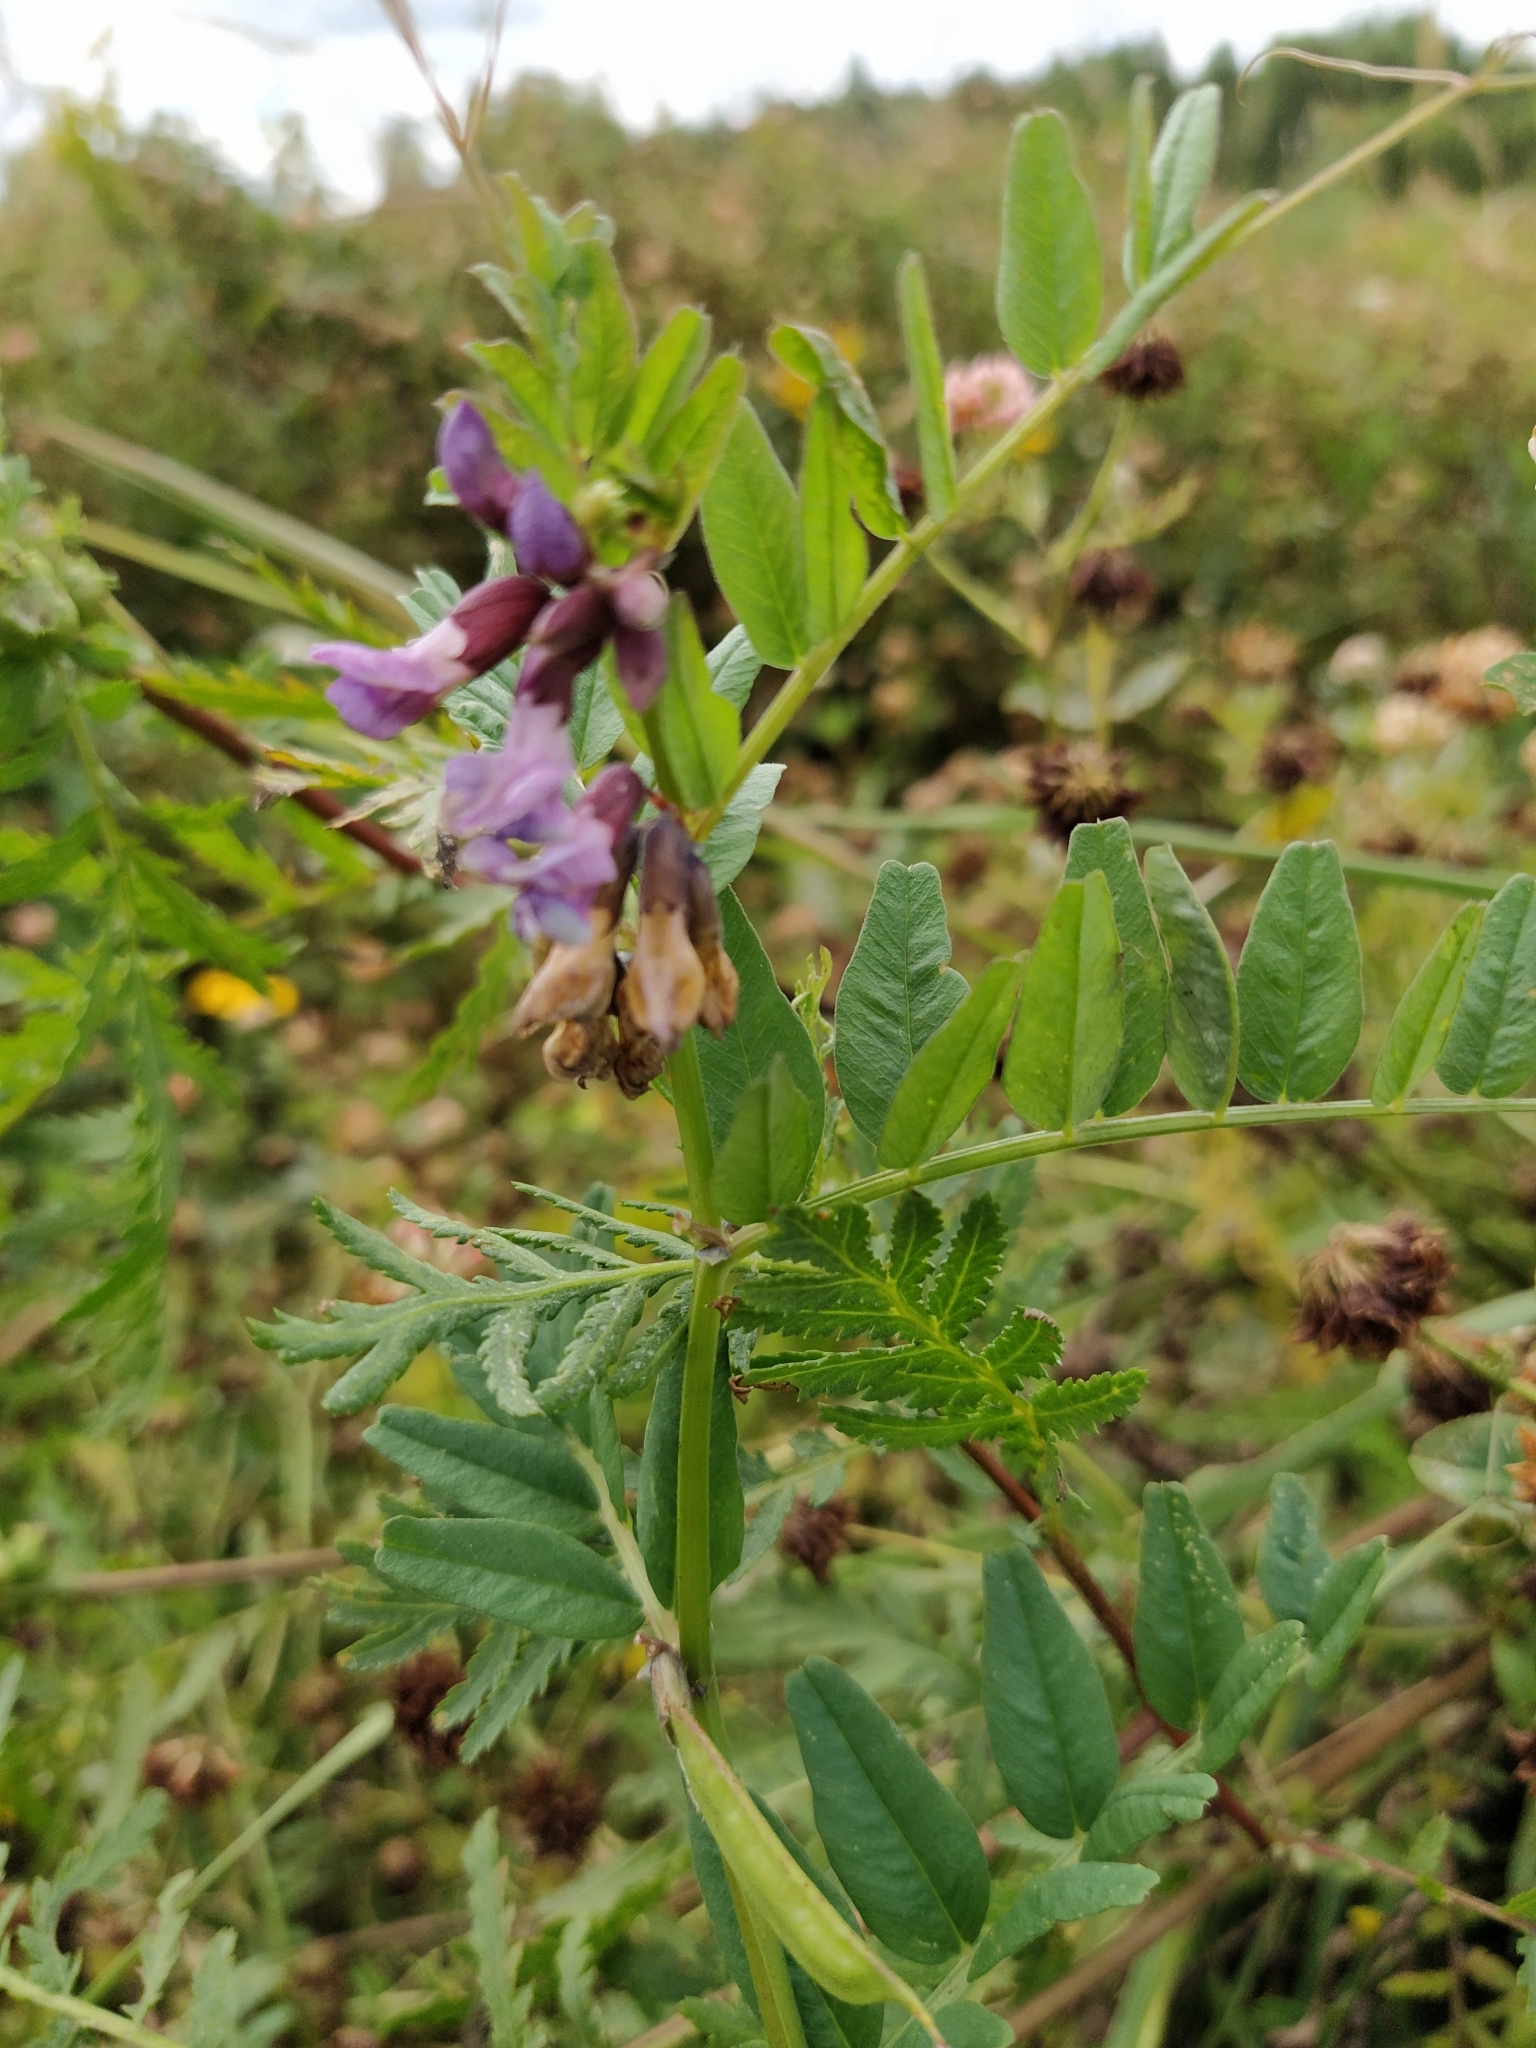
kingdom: Plantae
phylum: Tracheophyta
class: Magnoliopsida
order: Fabales
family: Fabaceae
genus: Vicia
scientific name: Vicia sepium
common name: Bush vetch
